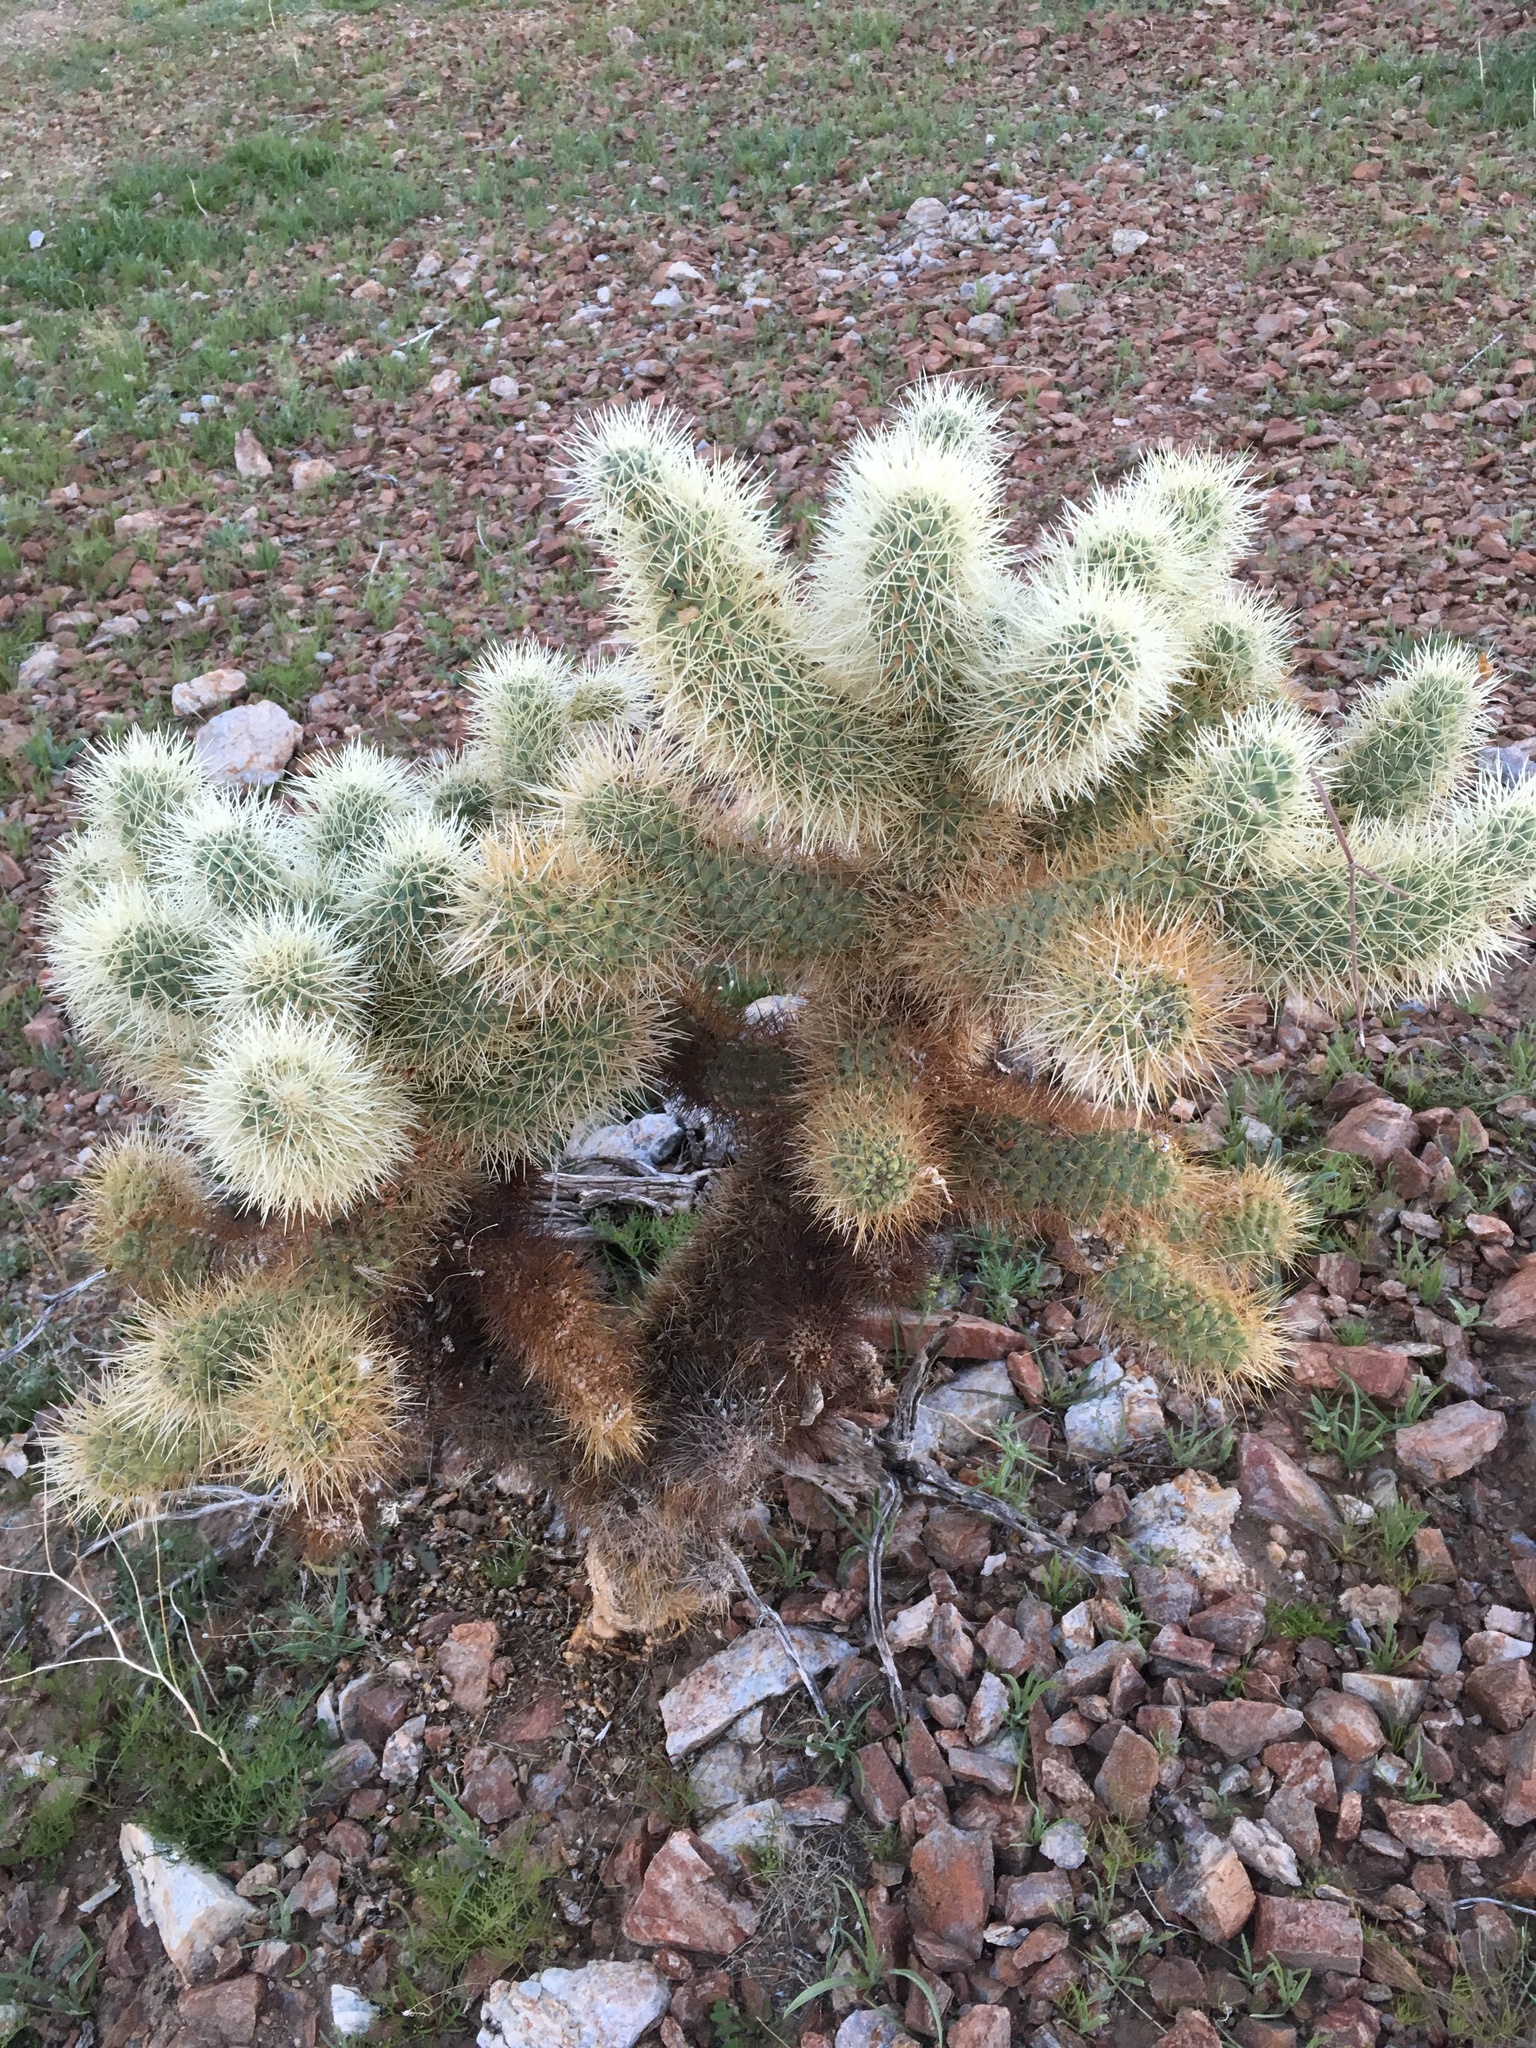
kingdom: Plantae
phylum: Tracheophyta
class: Magnoliopsida
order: Caryophyllales
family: Cactaceae
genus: Cylindropuntia
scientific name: Cylindropuntia fosbergii
